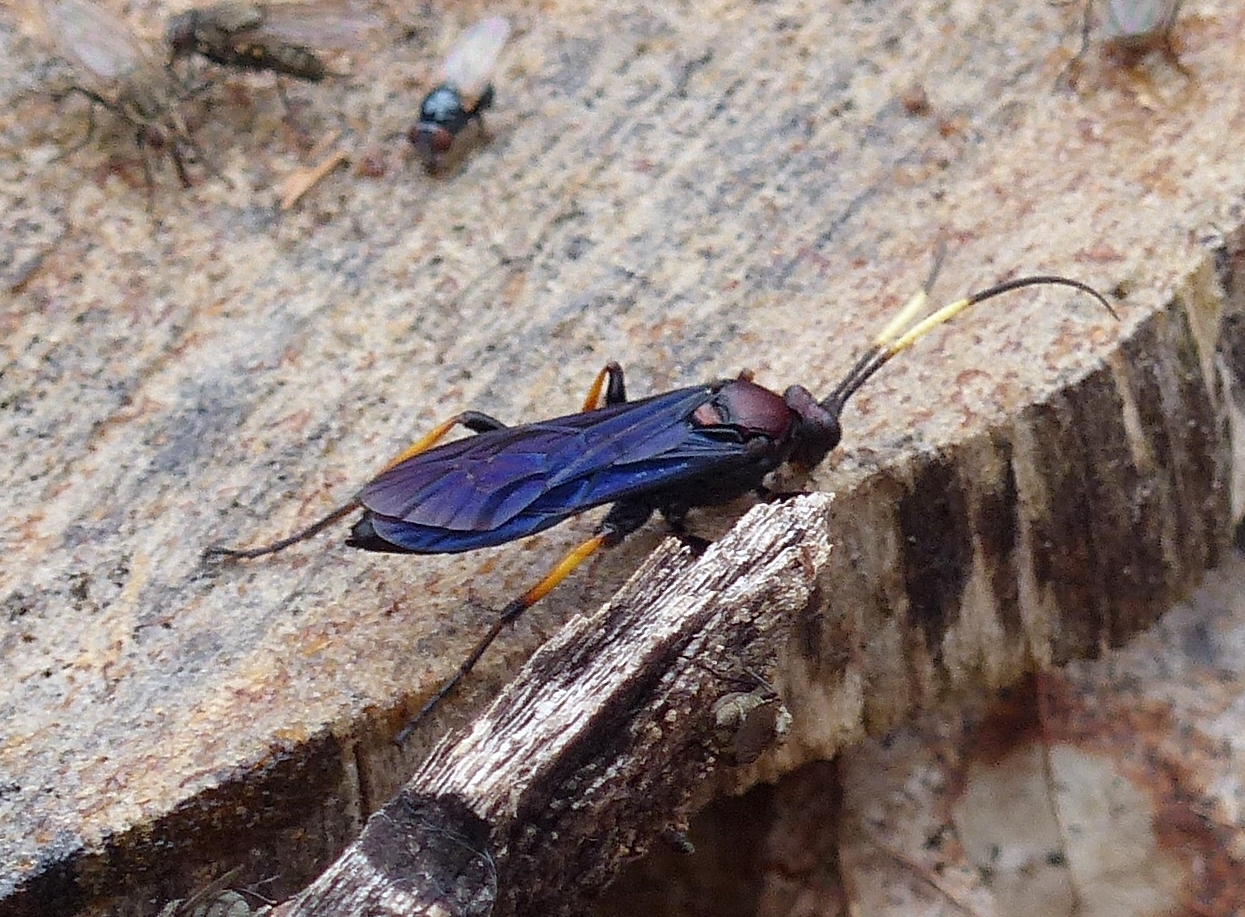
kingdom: Animalia
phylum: Arthropoda
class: Insecta
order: Hymenoptera
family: Ichneumonidae
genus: Ichneumon
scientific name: Ichneumon centrator
